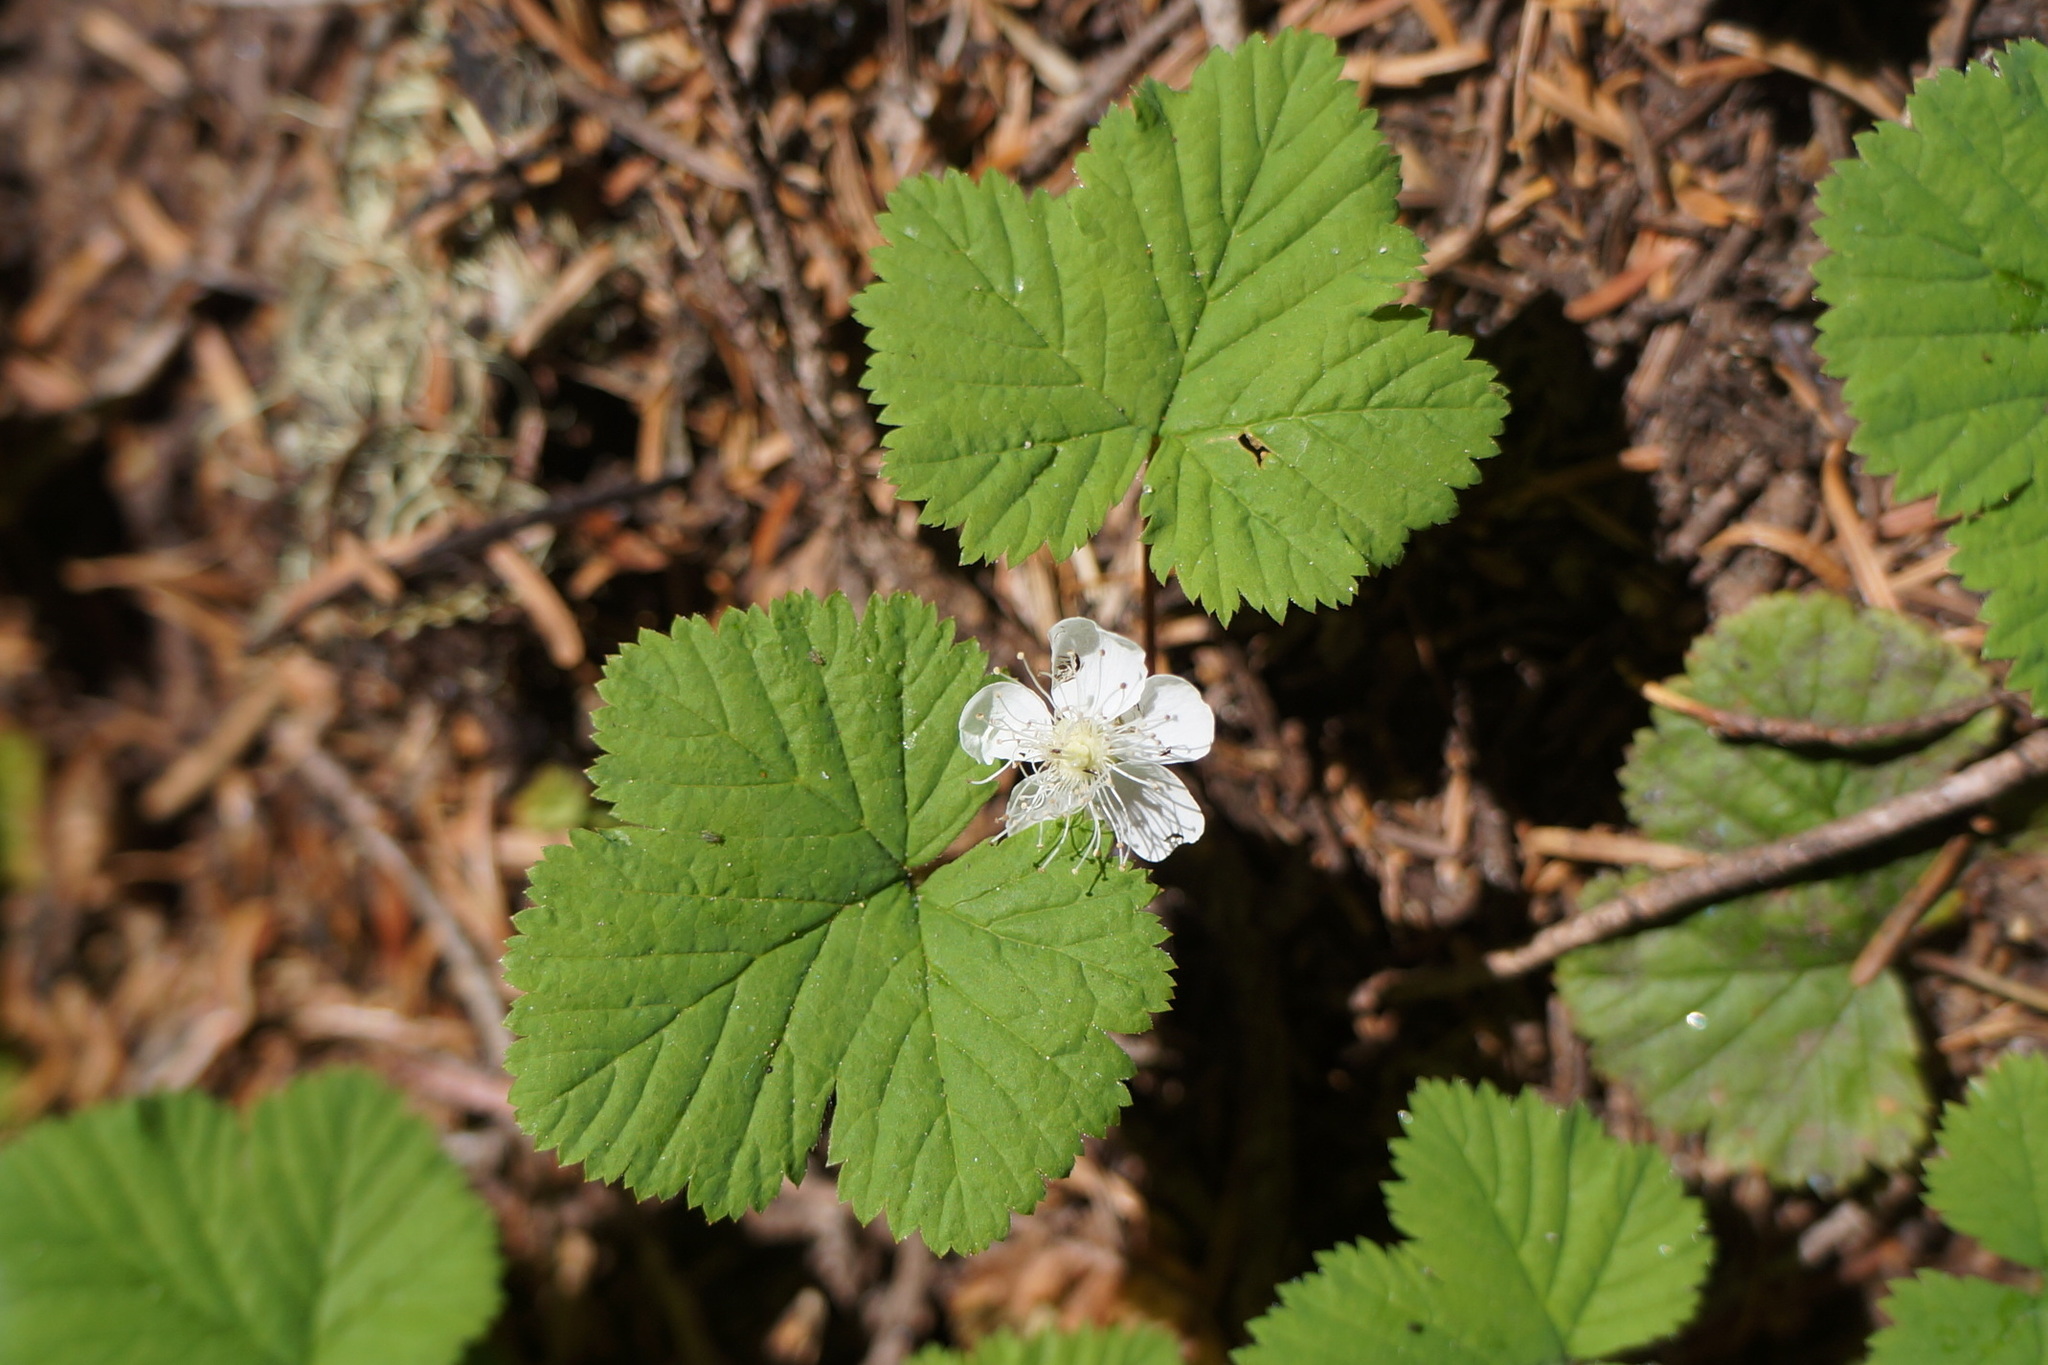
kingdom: Plantae
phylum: Tracheophyta
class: Magnoliopsida
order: Rosales
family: Rosaceae
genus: Rubus
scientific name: Rubus lasiococcus
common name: Dwarf bramble
